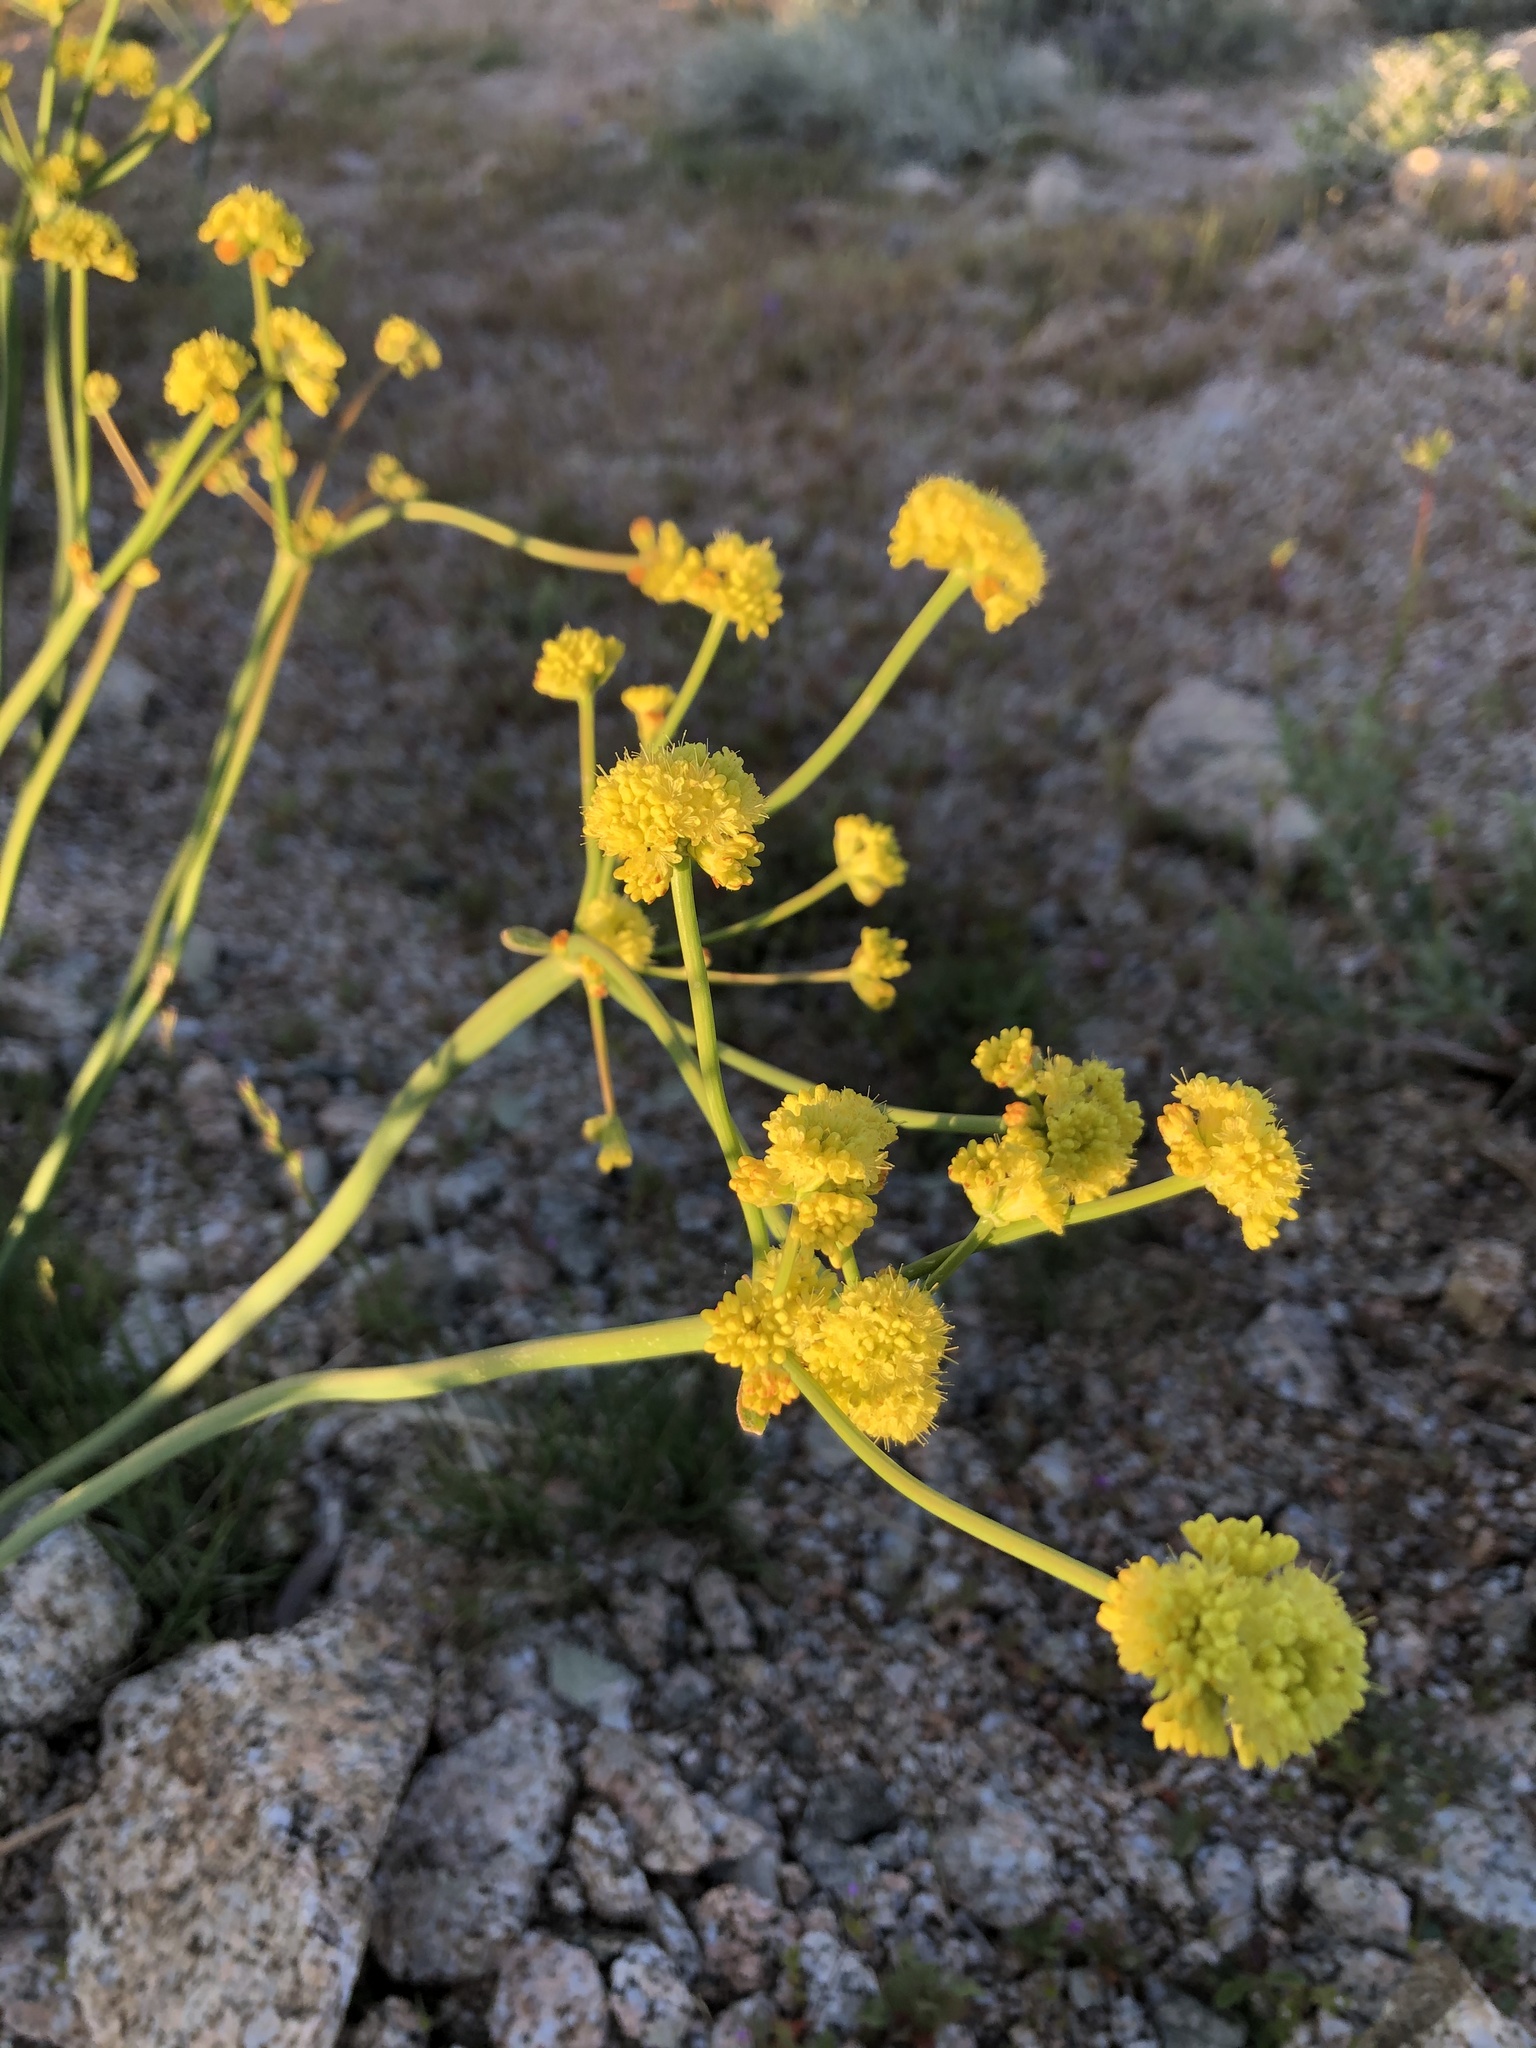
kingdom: Plantae
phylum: Tracheophyta
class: Magnoliopsida
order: Caryophyllales
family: Polygonaceae
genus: Eriogonum
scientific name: Eriogonum nudum
